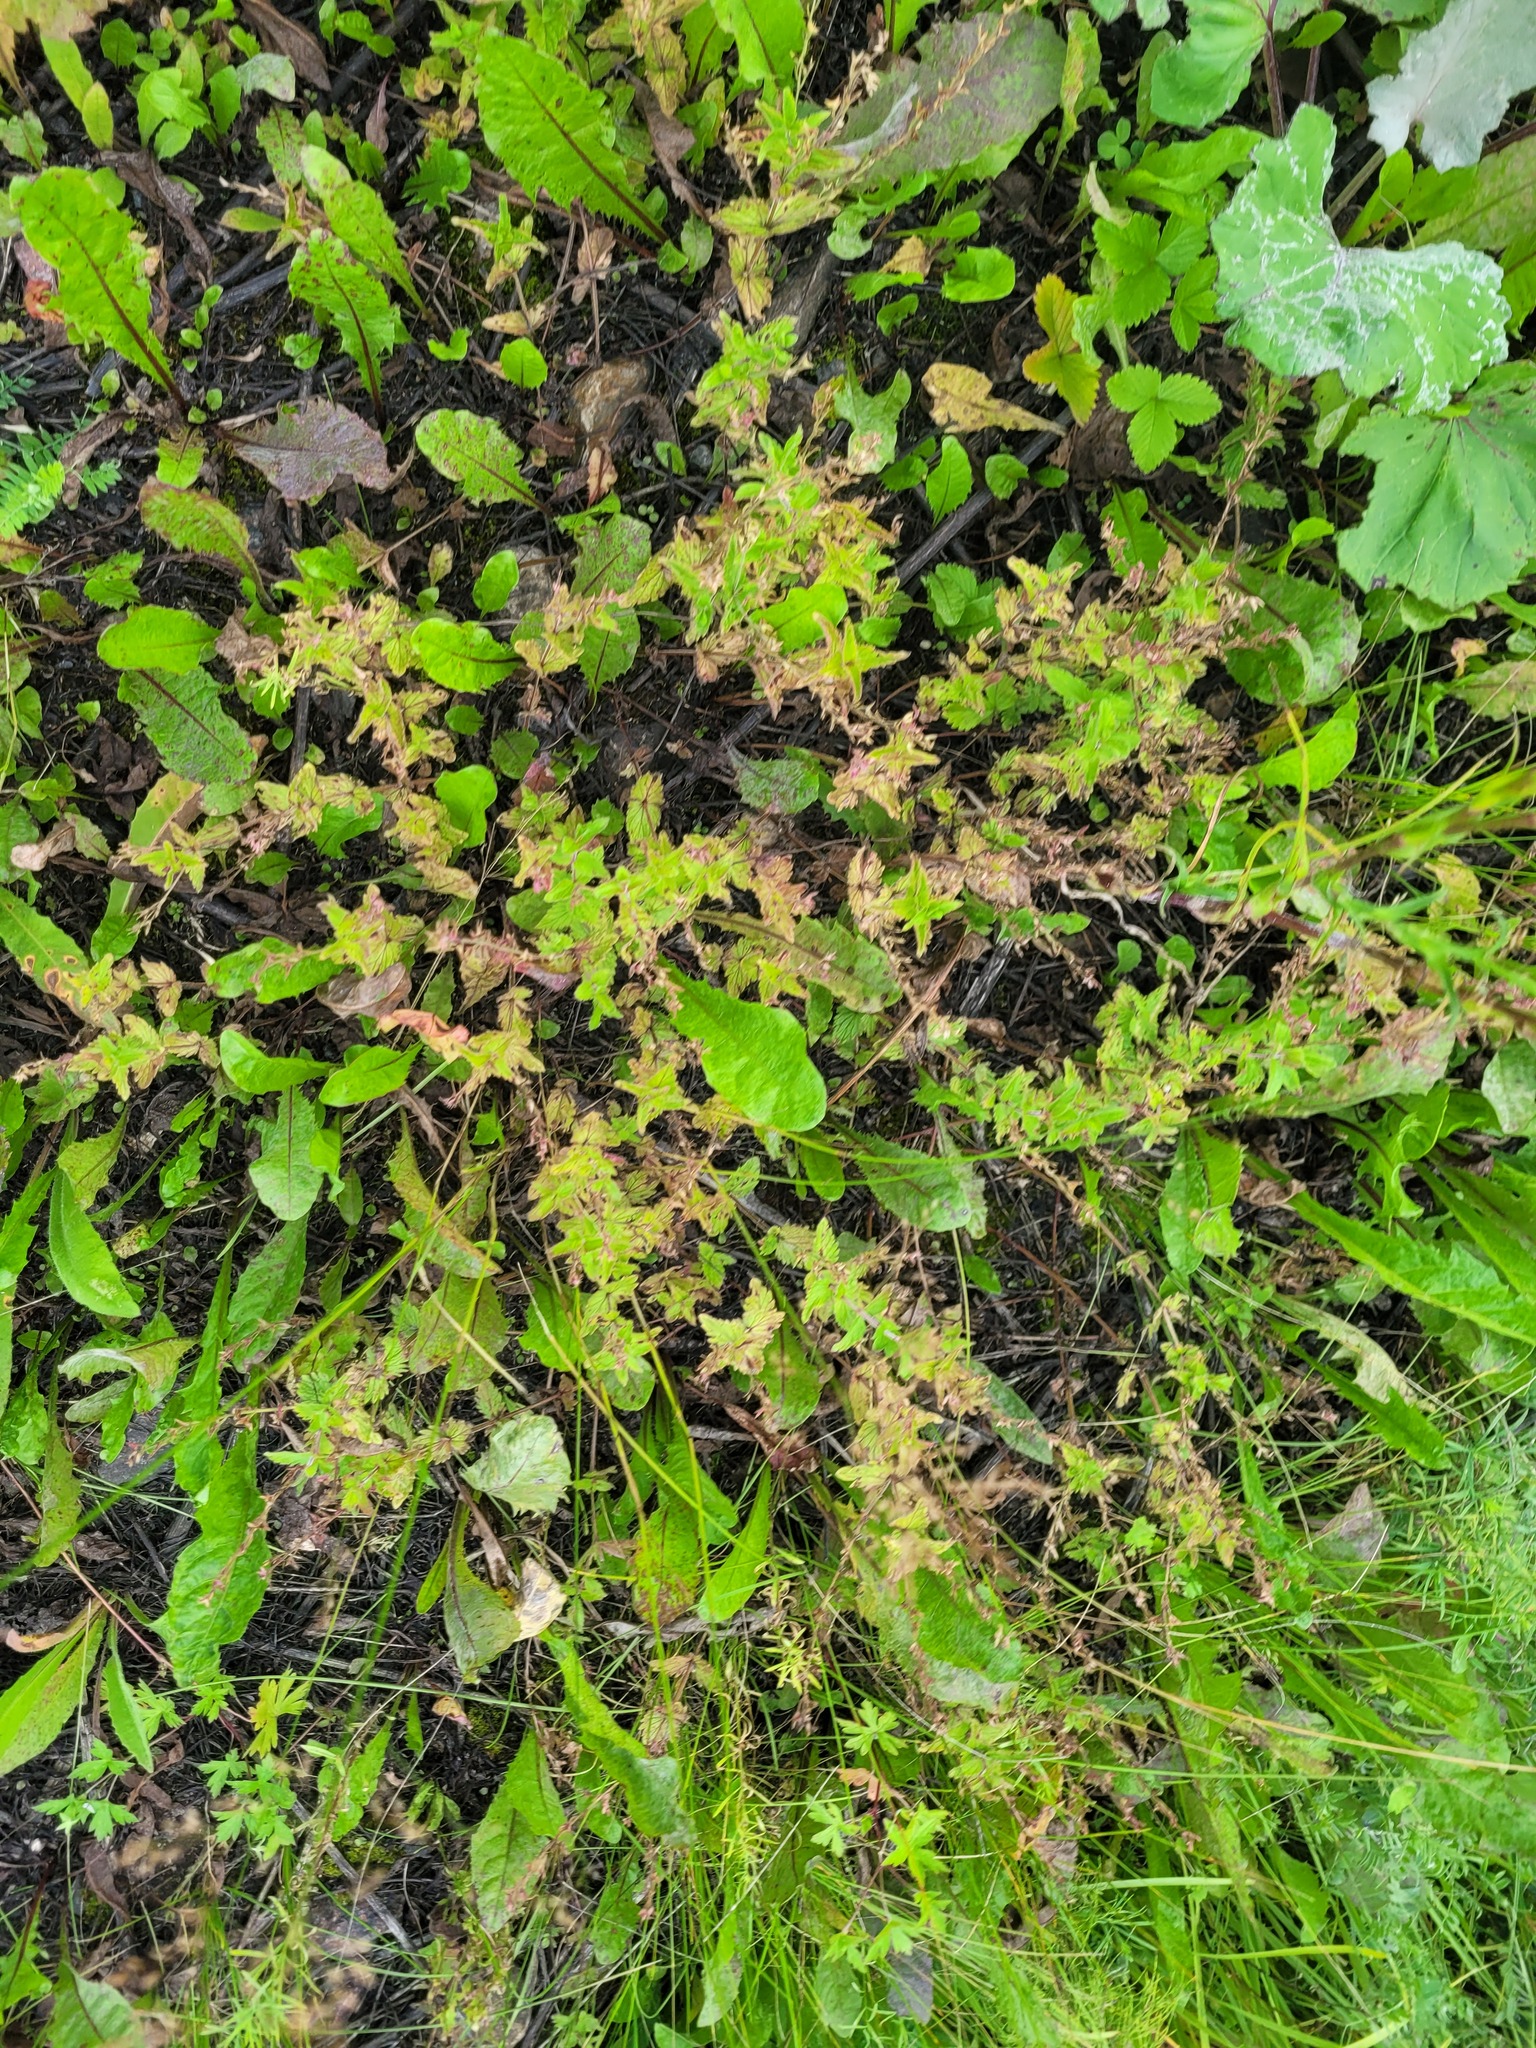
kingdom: Plantae
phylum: Tracheophyta
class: Magnoliopsida
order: Lamiales
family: Plantaginaceae
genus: Veronica
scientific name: Veronica chamaedrys
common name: Germander speedwell
